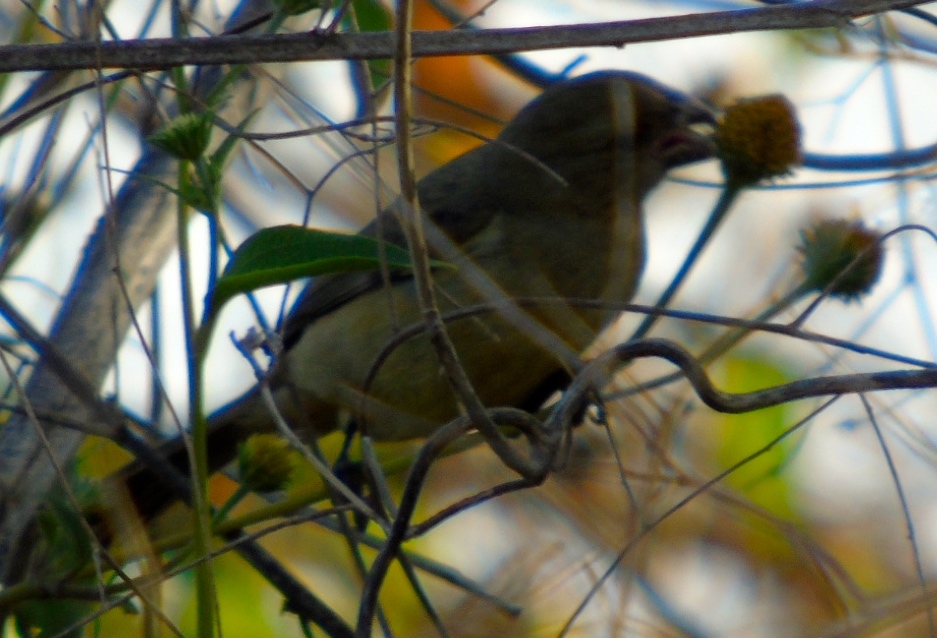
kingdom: Animalia
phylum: Chordata
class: Aves
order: Passeriformes
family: Thraupidae
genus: Sporophila
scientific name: Sporophila torqueola
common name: White-collared seedeater
